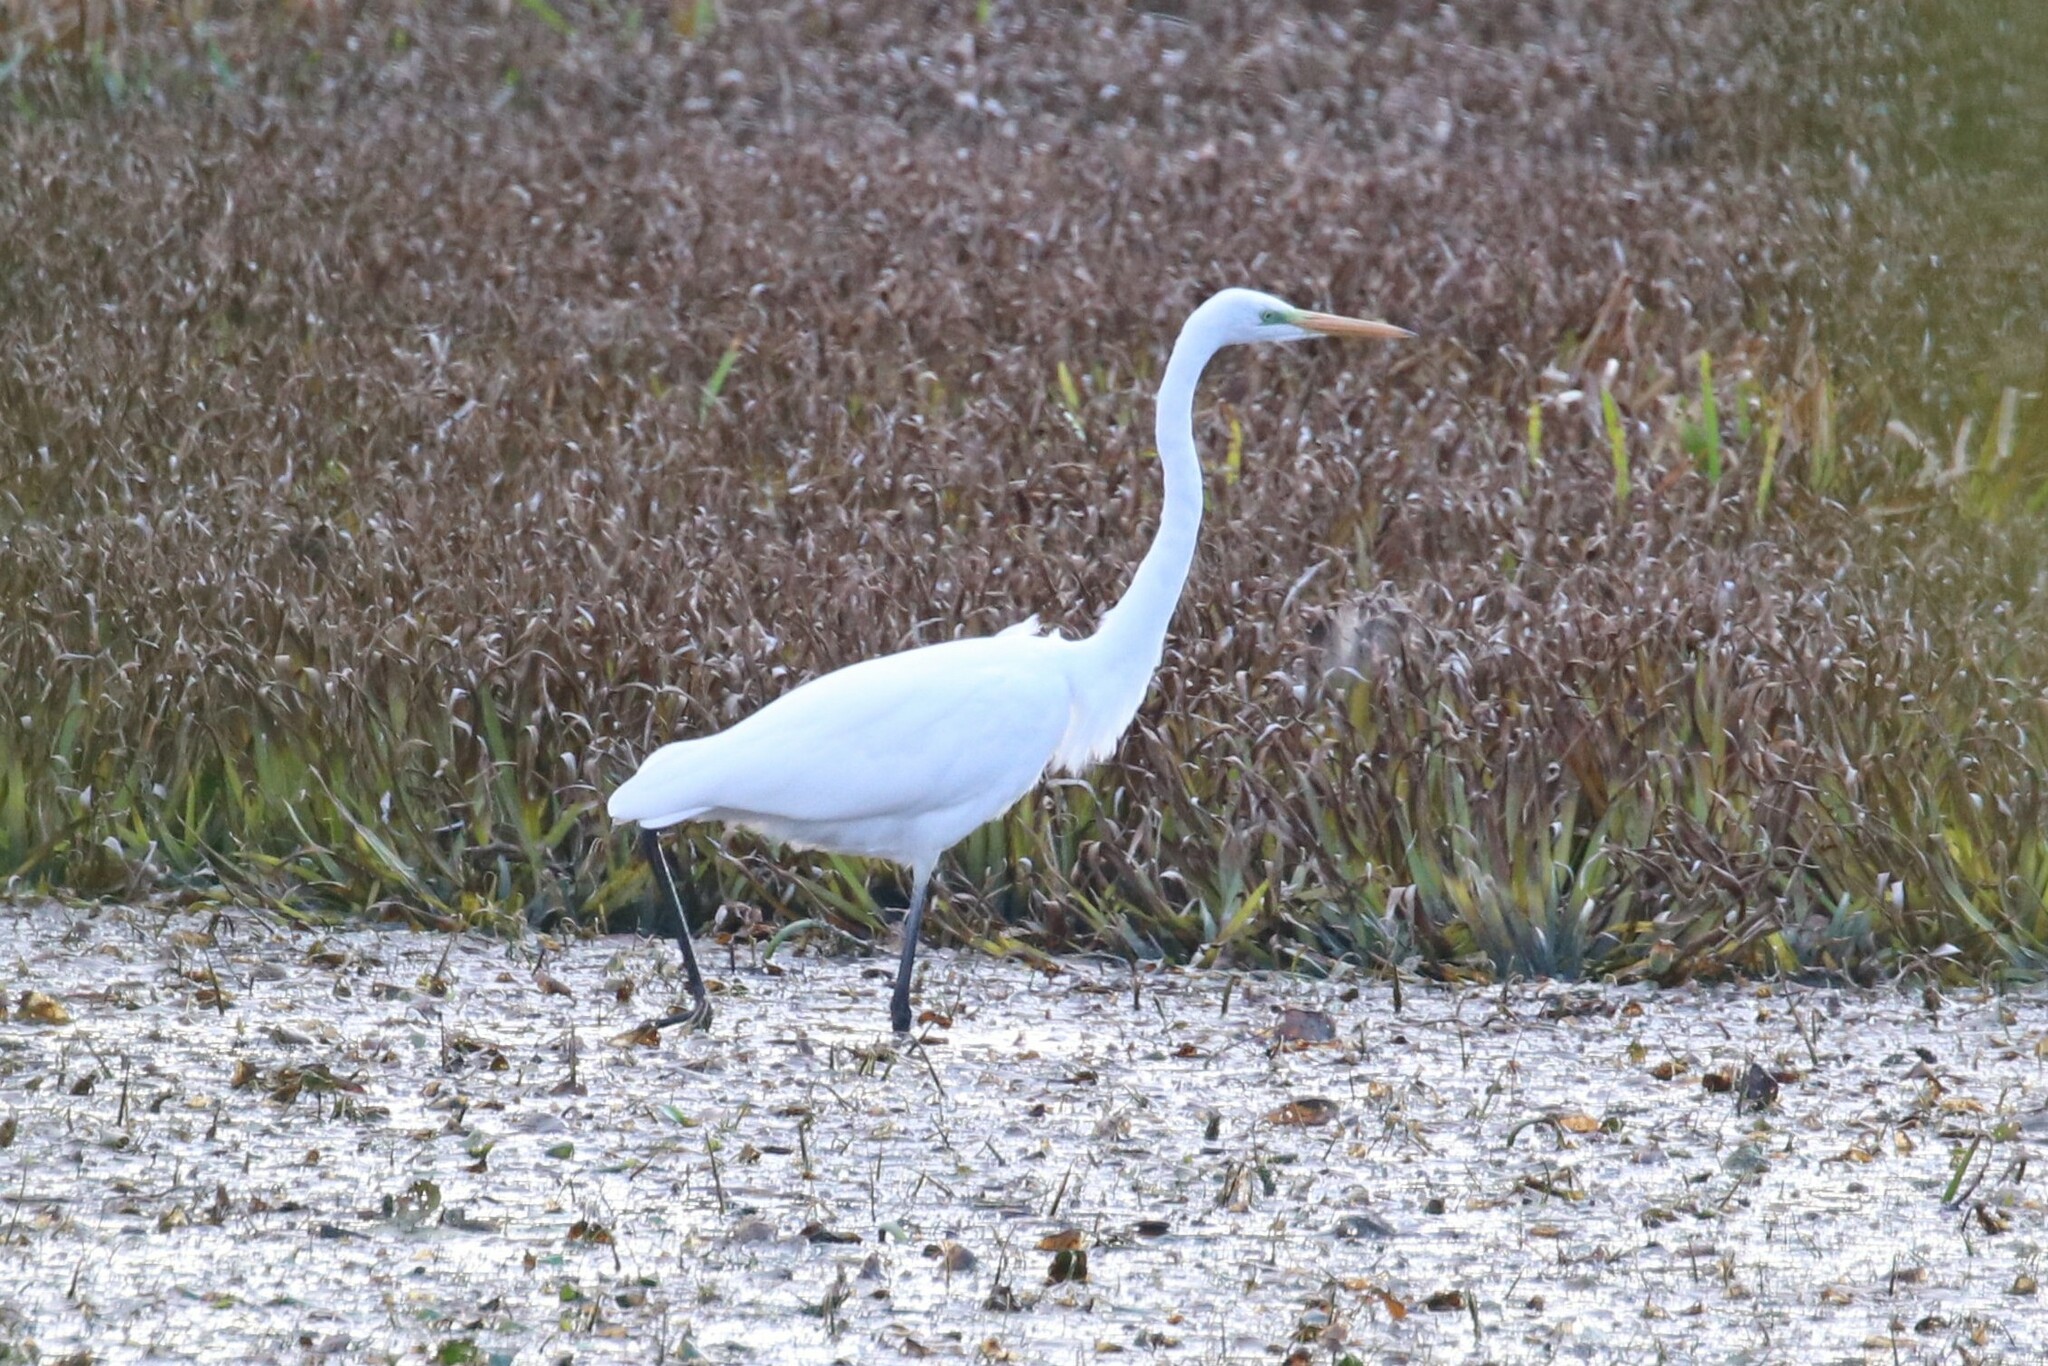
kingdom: Animalia
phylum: Chordata
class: Aves
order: Pelecaniformes
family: Ardeidae
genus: Ardea
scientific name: Ardea alba
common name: Great egret
